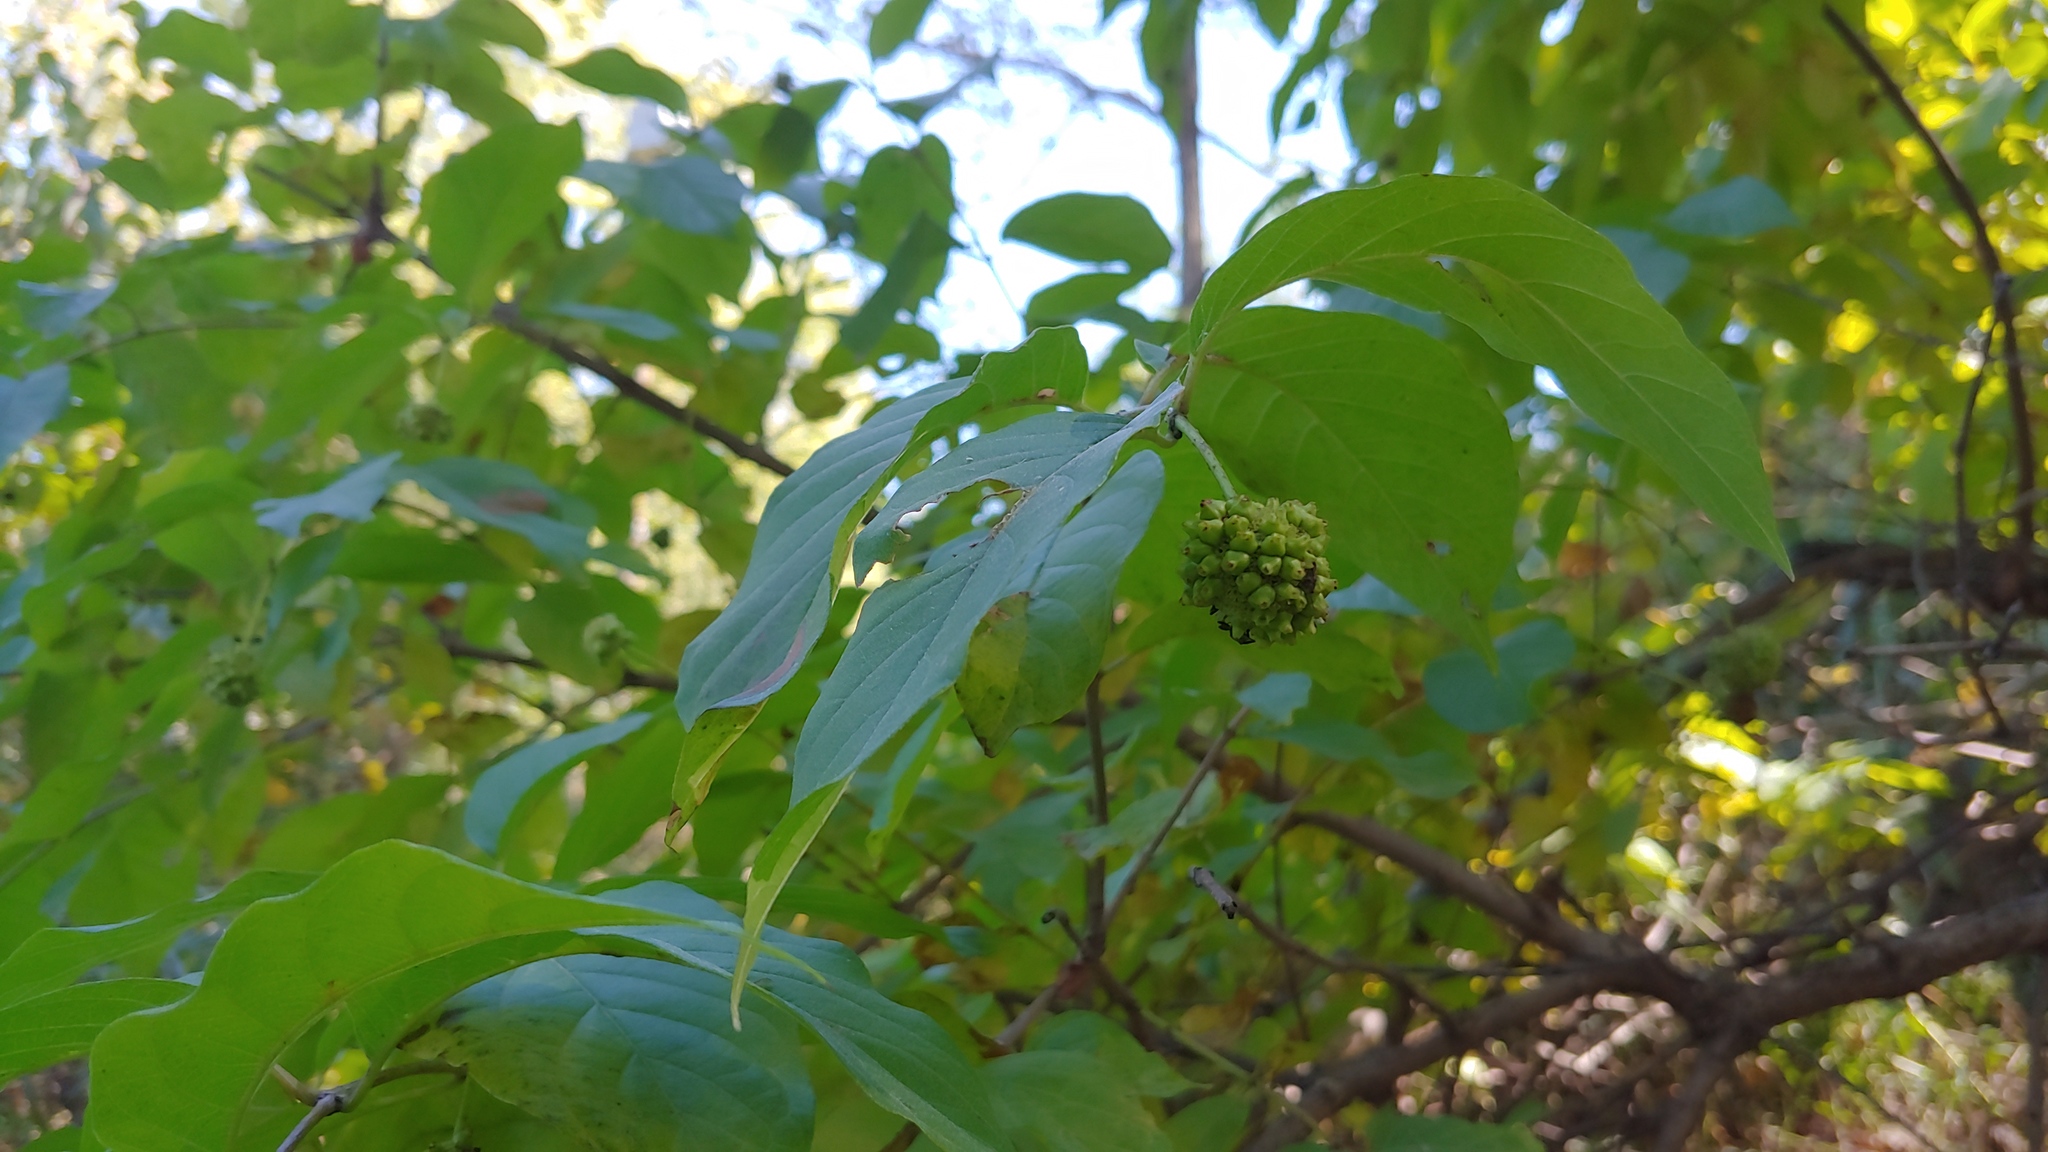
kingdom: Plantae
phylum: Tracheophyta
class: Magnoliopsida
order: Gentianales
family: Rubiaceae
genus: Cephalanthus
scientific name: Cephalanthus occidentalis
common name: Button-willow
